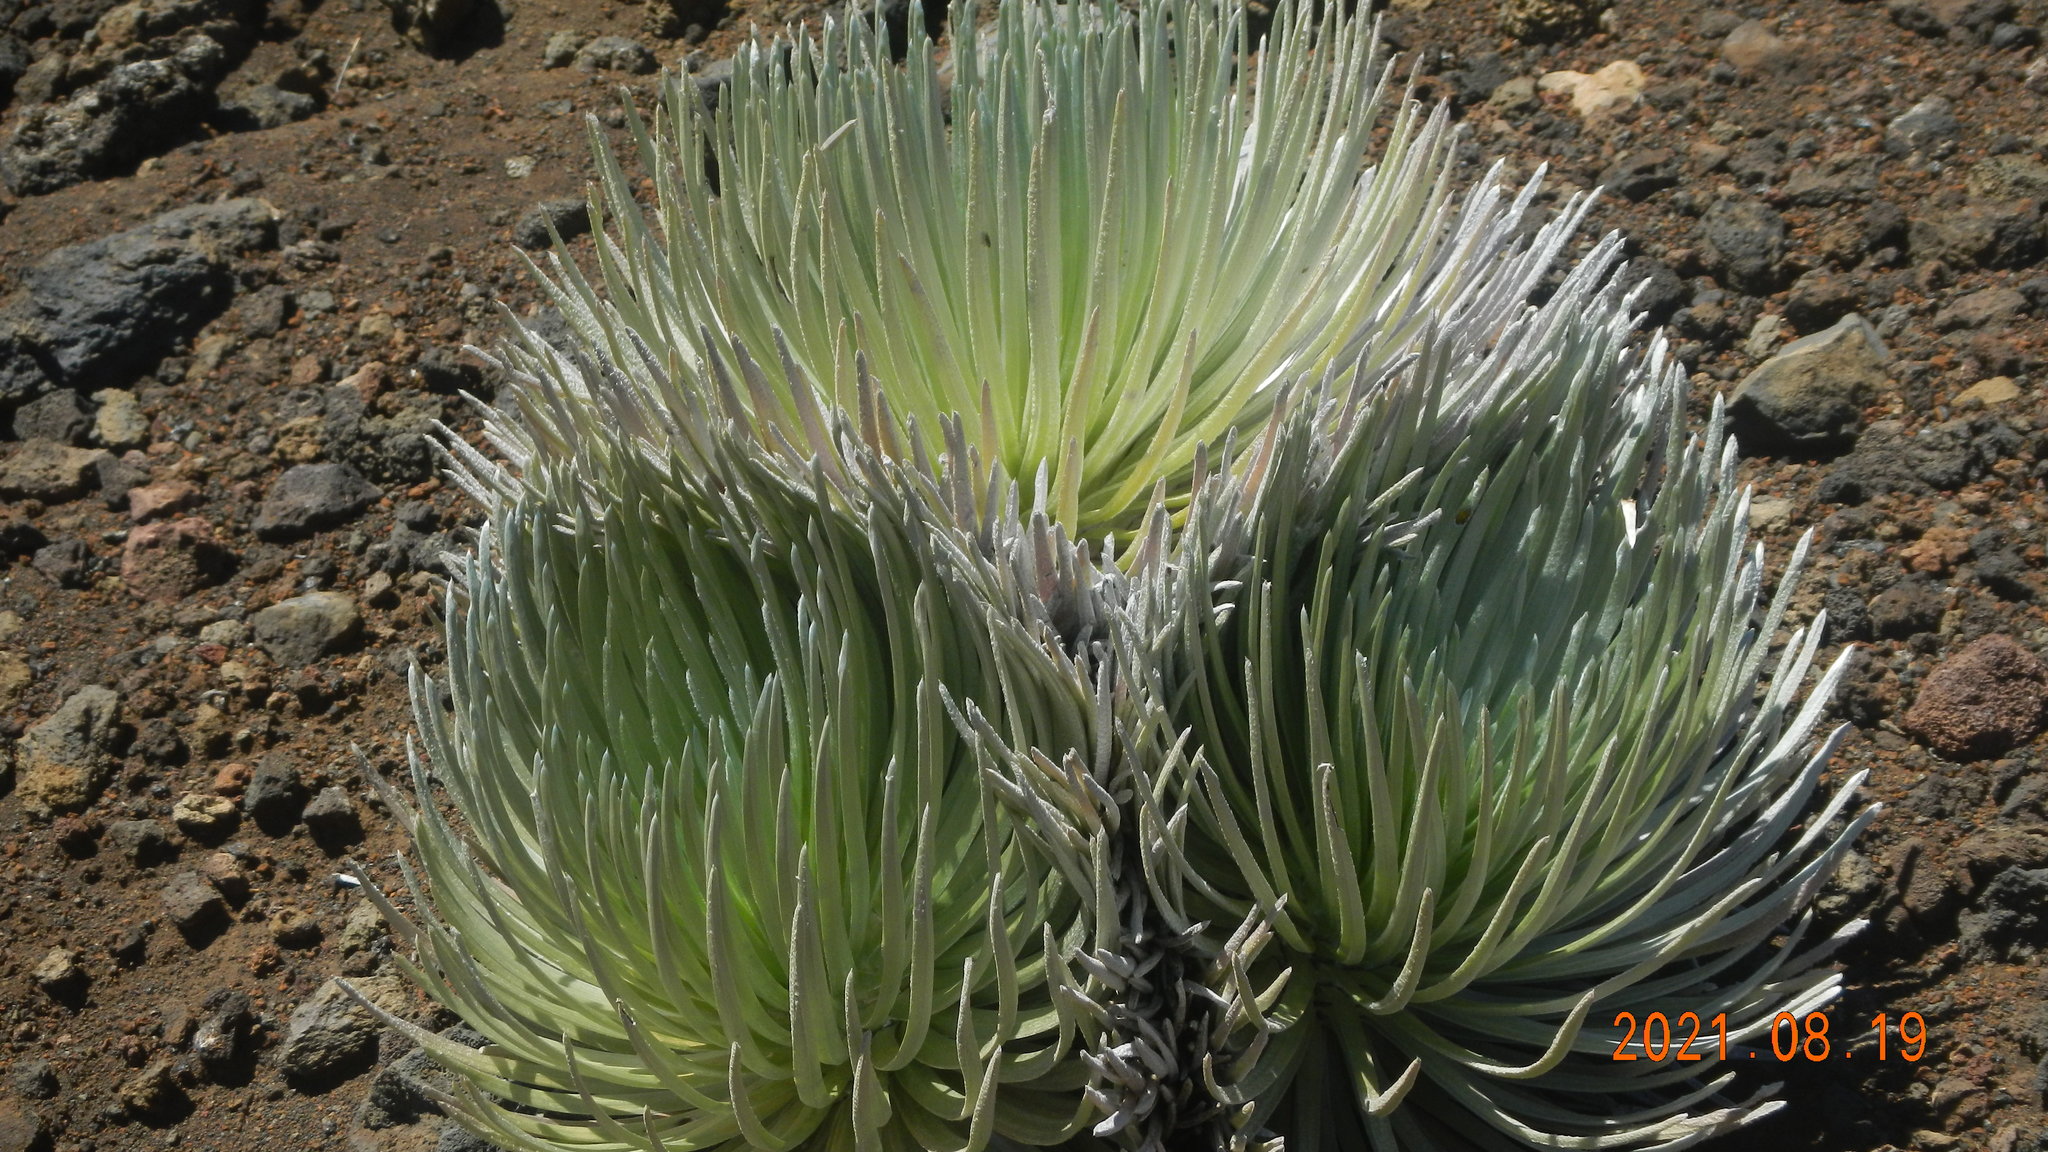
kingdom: Plantae
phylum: Tracheophyta
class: Magnoliopsida
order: Asterales
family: Asteraceae
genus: Argyroxiphium
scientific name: Argyroxiphium sandwicense
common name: Silversword
